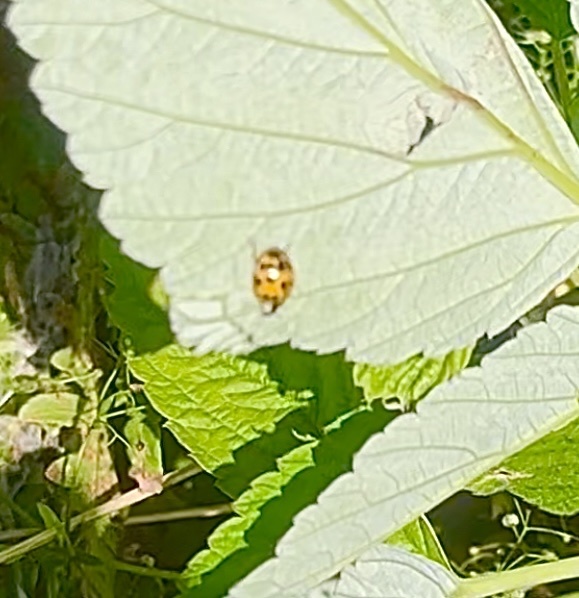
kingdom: Animalia
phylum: Arthropoda
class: Insecta
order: Coleoptera
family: Coccinellidae
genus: Harmonia
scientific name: Harmonia axyridis
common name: Harlequin ladybird
